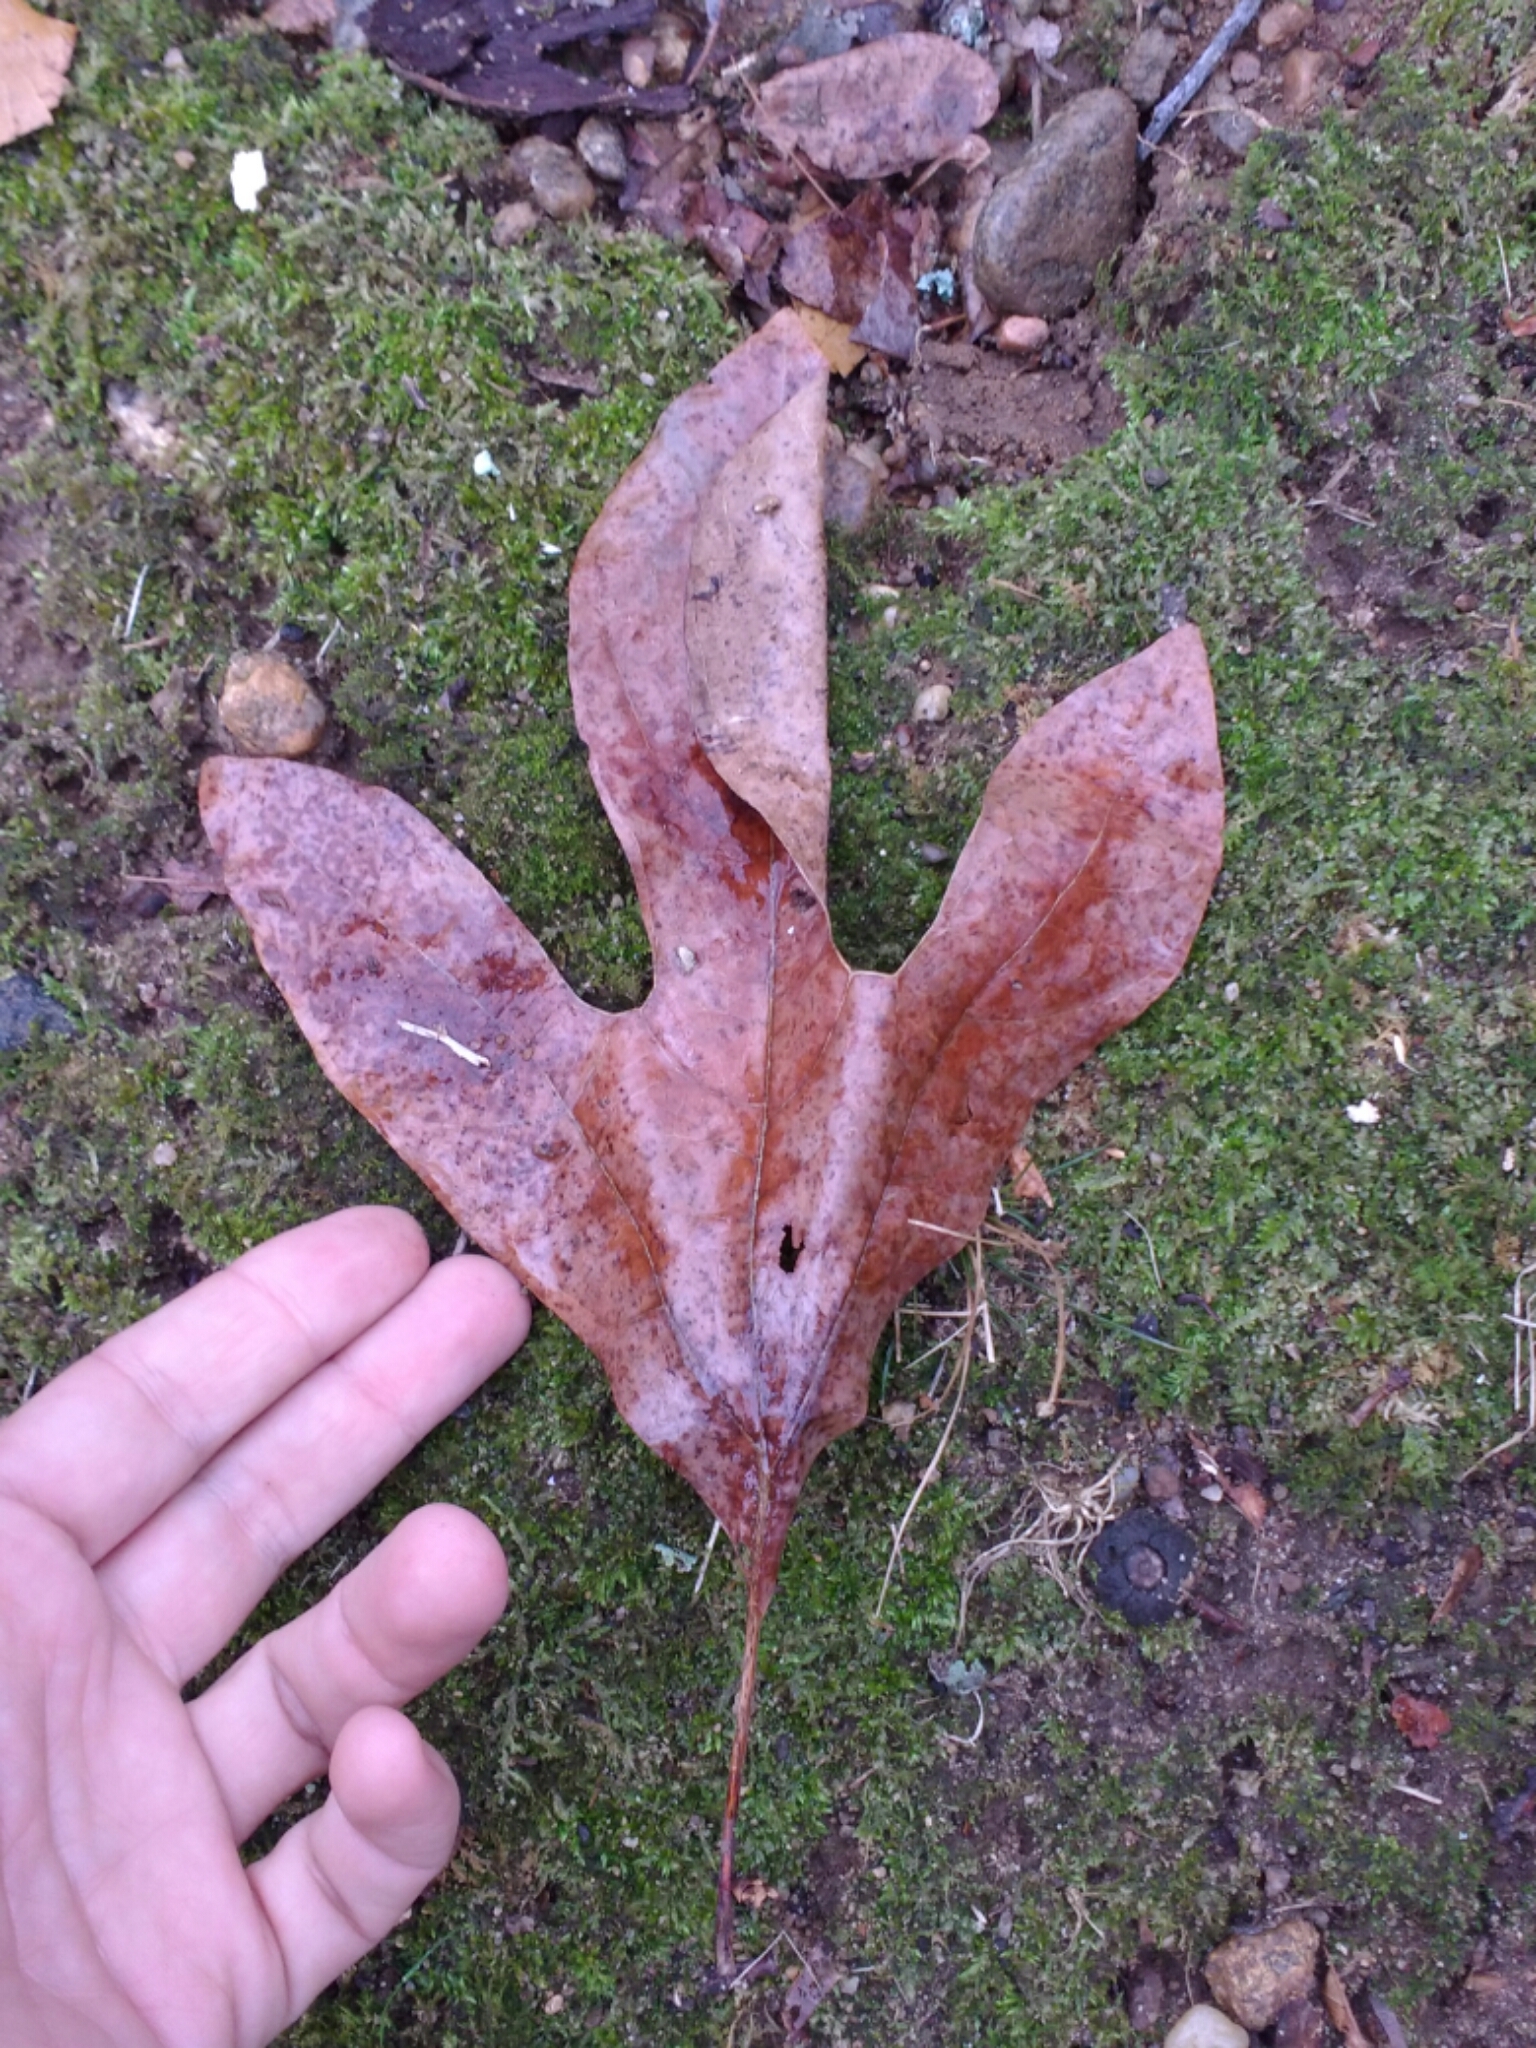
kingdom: Plantae
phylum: Tracheophyta
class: Magnoliopsida
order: Laurales
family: Lauraceae
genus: Sassafras
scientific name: Sassafras albidum
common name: Sassafras
